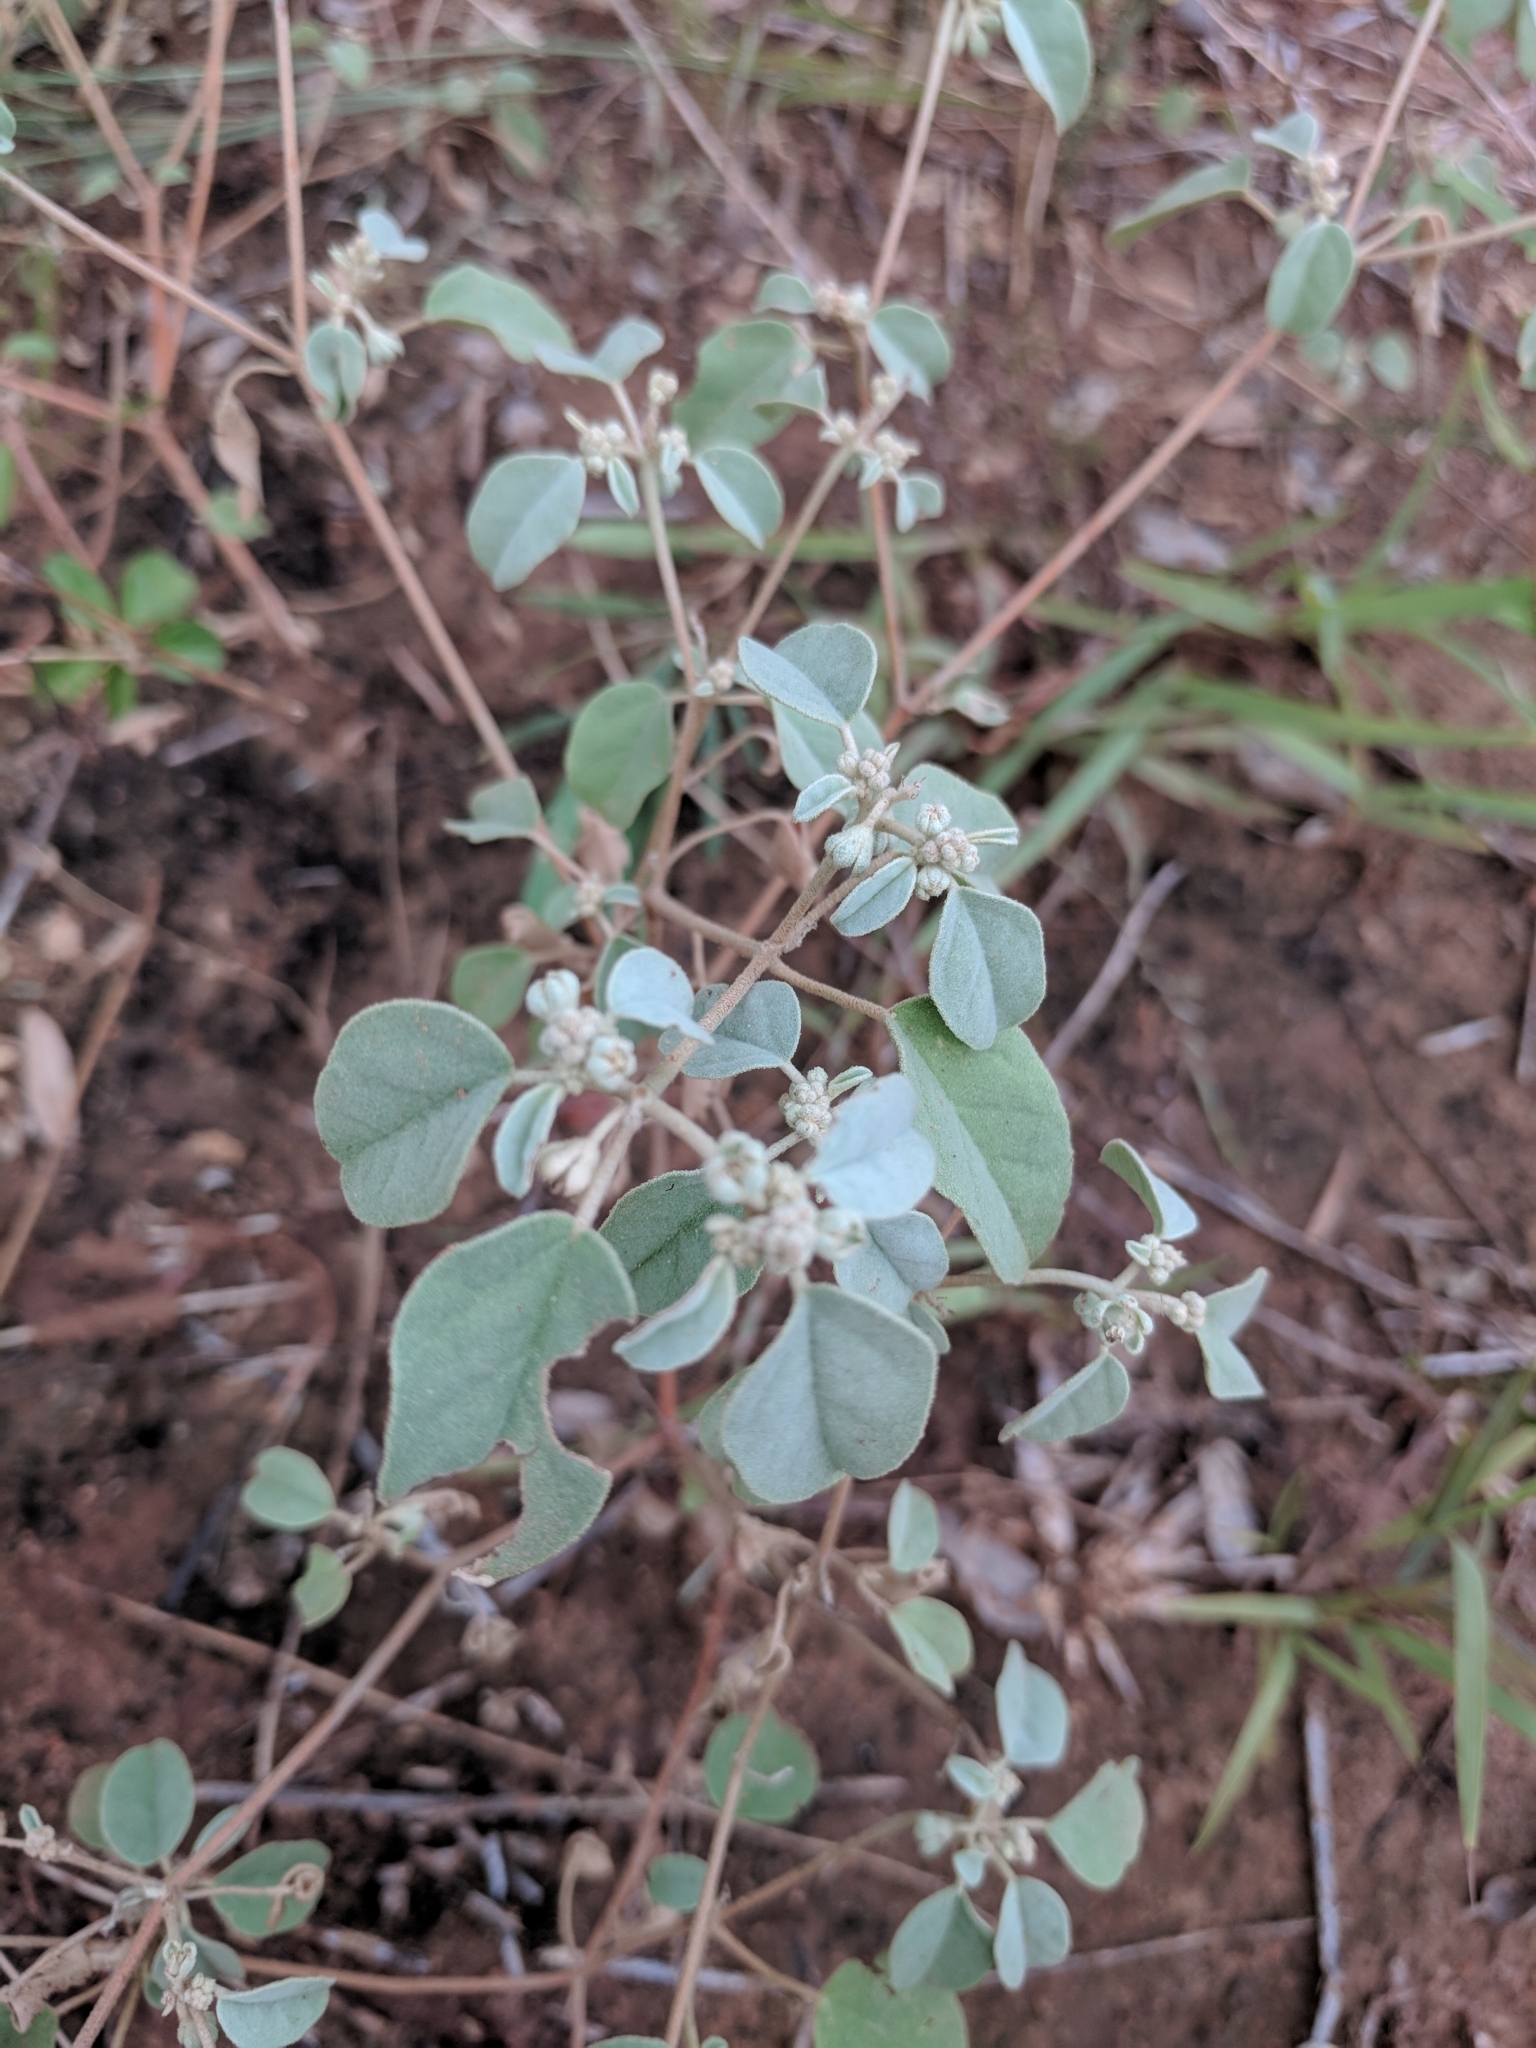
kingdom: Plantae
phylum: Tracheophyta
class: Magnoliopsida
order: Malpighiales
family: Euphorbiaceae
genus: Croton
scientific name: Croton lindheimerianus
